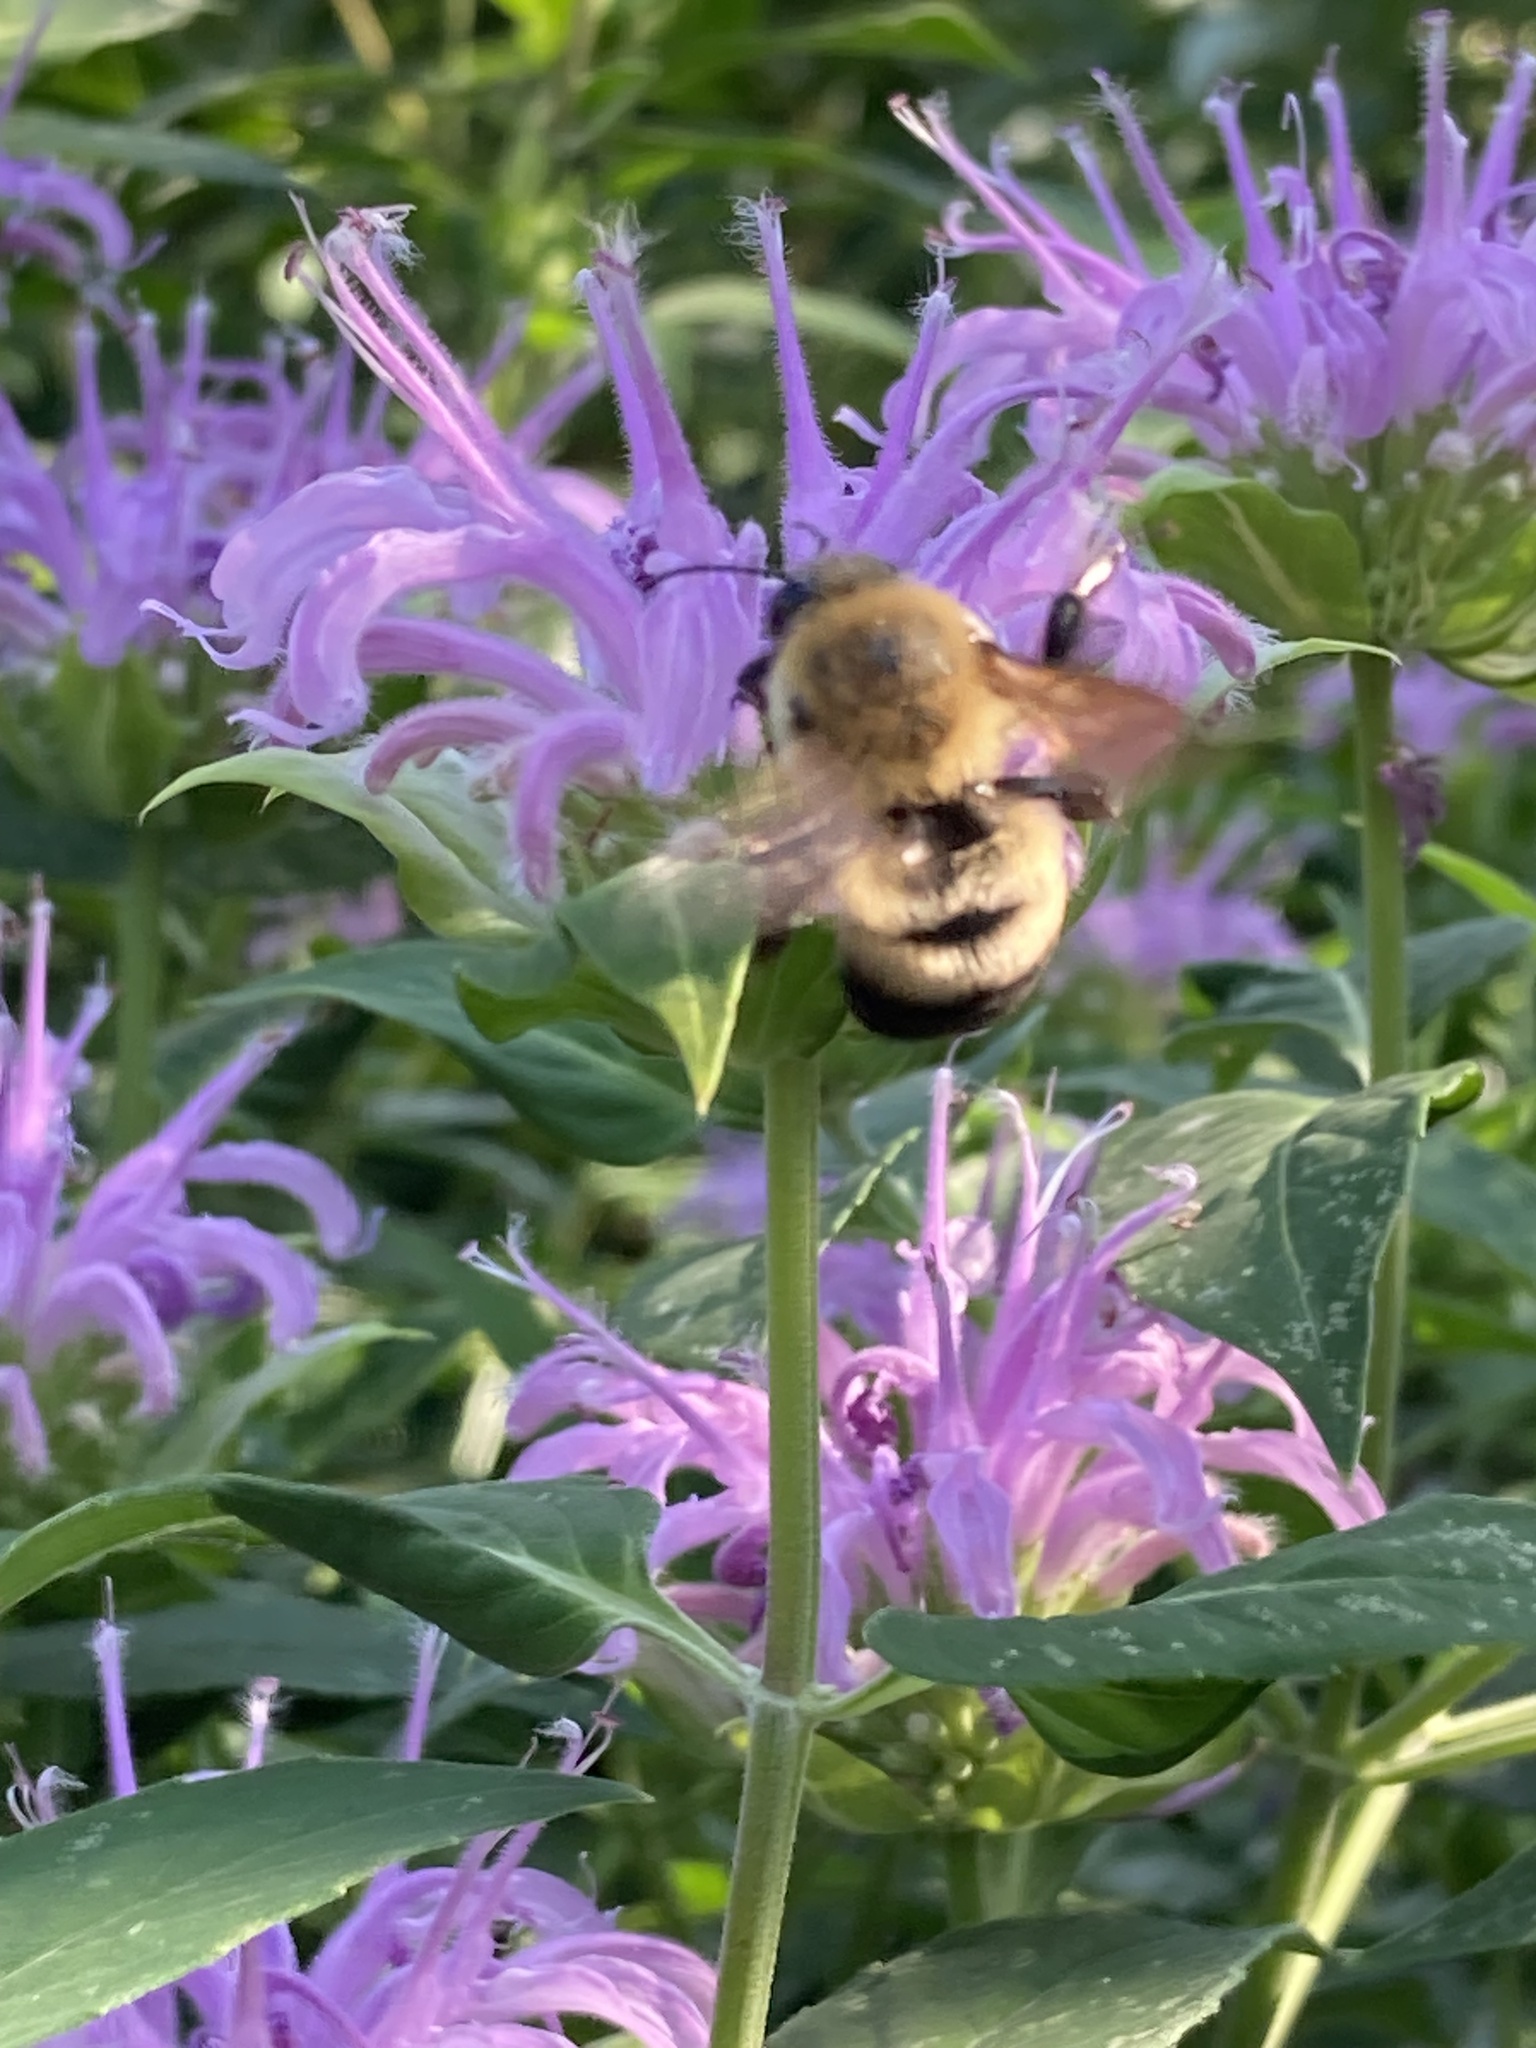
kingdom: Animalia
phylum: Arthropoda
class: Insecta
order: Hymenoptera
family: Apidae
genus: Bombus
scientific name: Bombus griseocollis
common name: Brown-belted bumble bee
